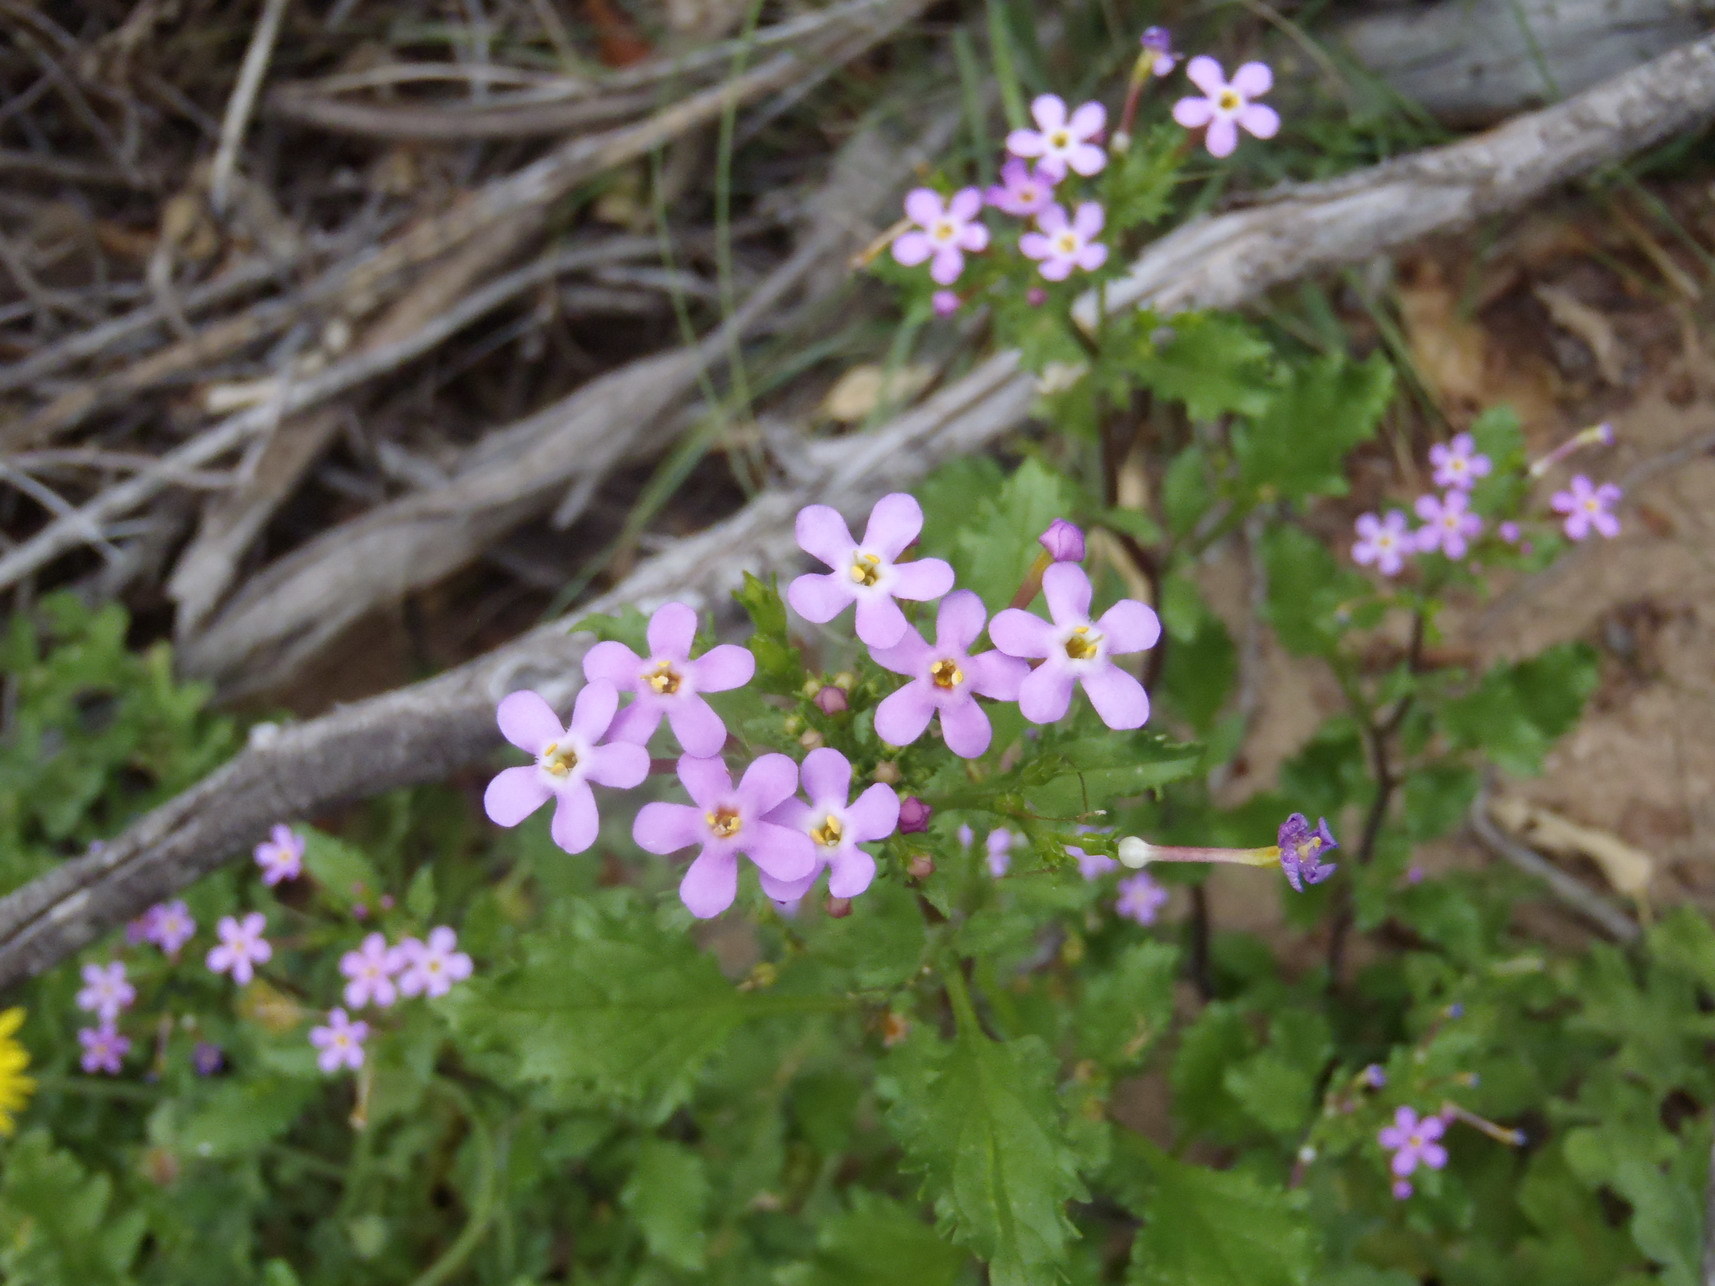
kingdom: Plantae
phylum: Tracheophyta
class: Magnoliopsida
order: Lamiales
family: Scrophulariaceae
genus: Sutera
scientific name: Sutera foetida
